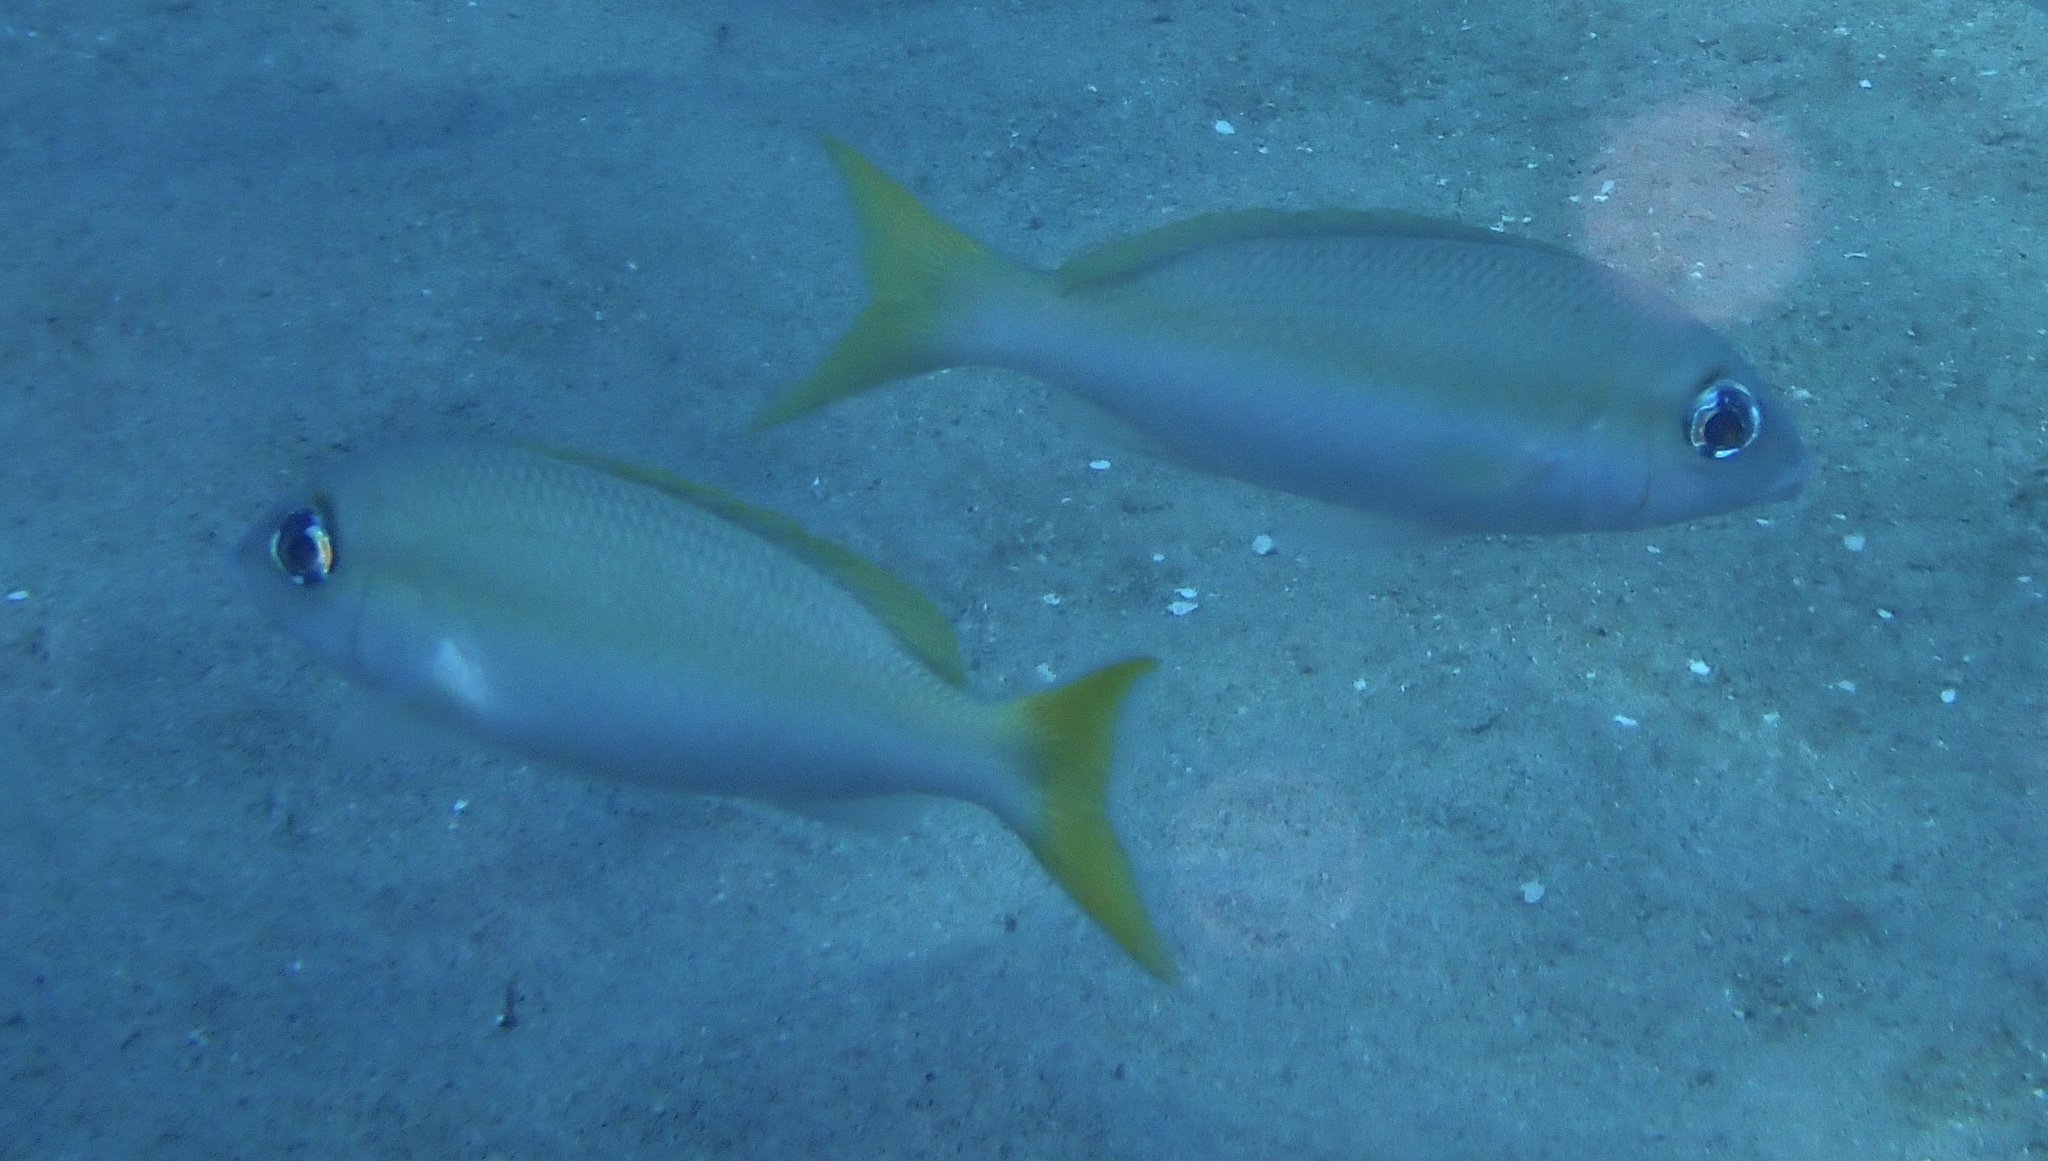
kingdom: Animalia
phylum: Chordata
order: Perciformes
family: Nemipteridae
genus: Scolopsis
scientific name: Scolopsis affinis
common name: Peters' monocle bream
